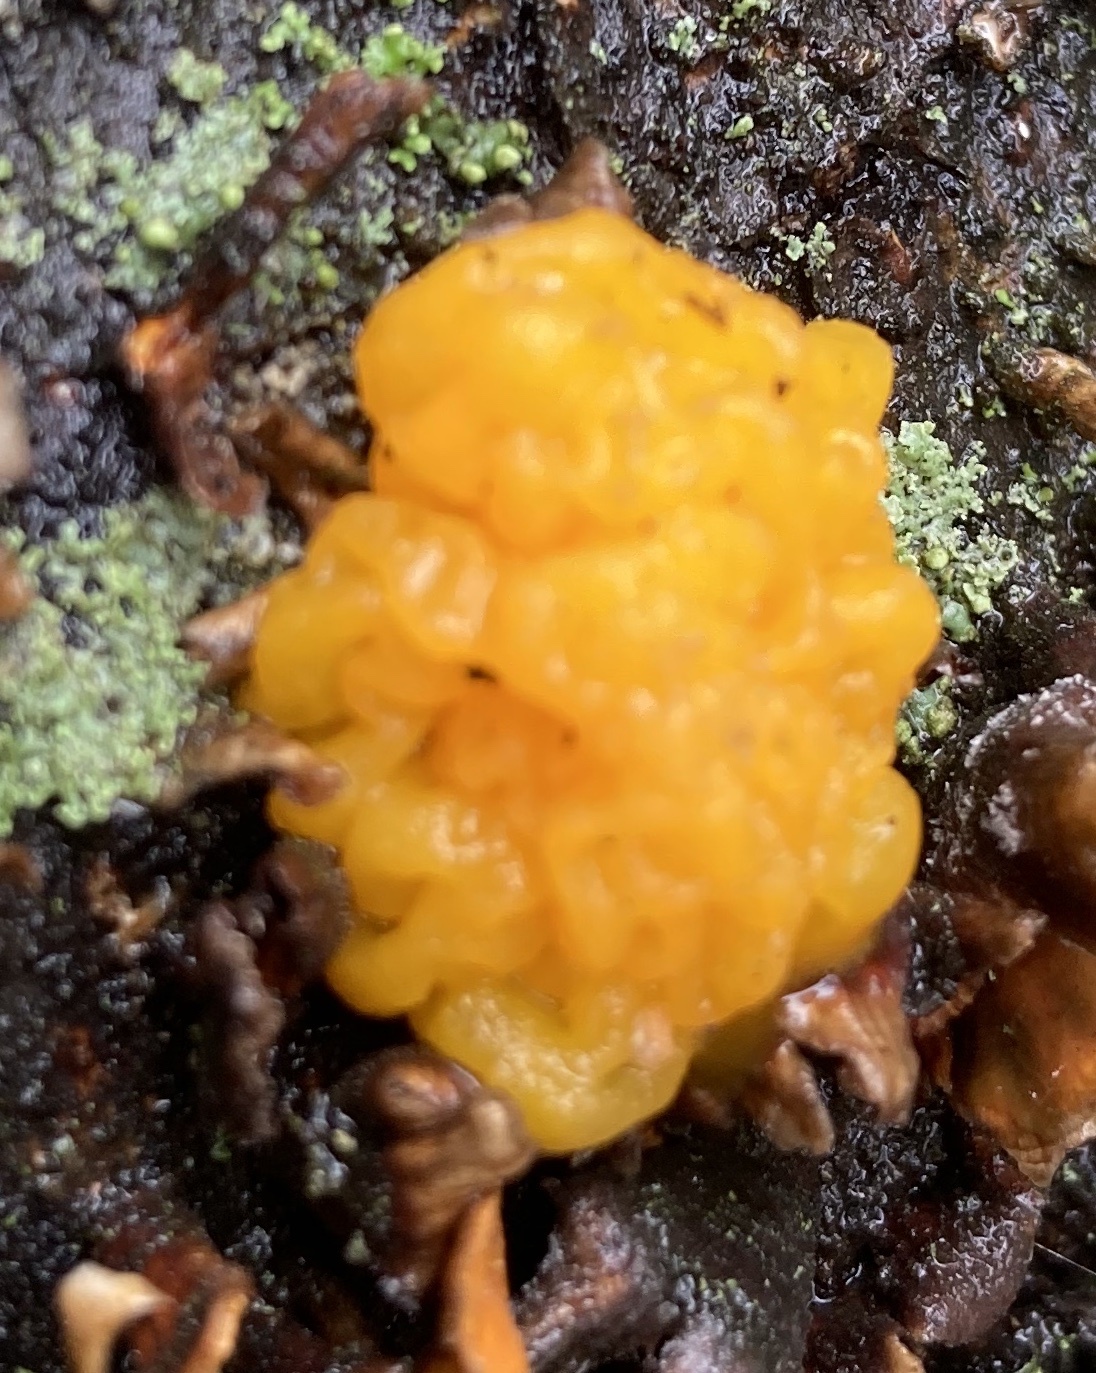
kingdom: Fungi
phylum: Basidiomycota
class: Tremellomycetes
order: Tremellales
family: Tremellaceae
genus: Tremella
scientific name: Tremella mesenterica
